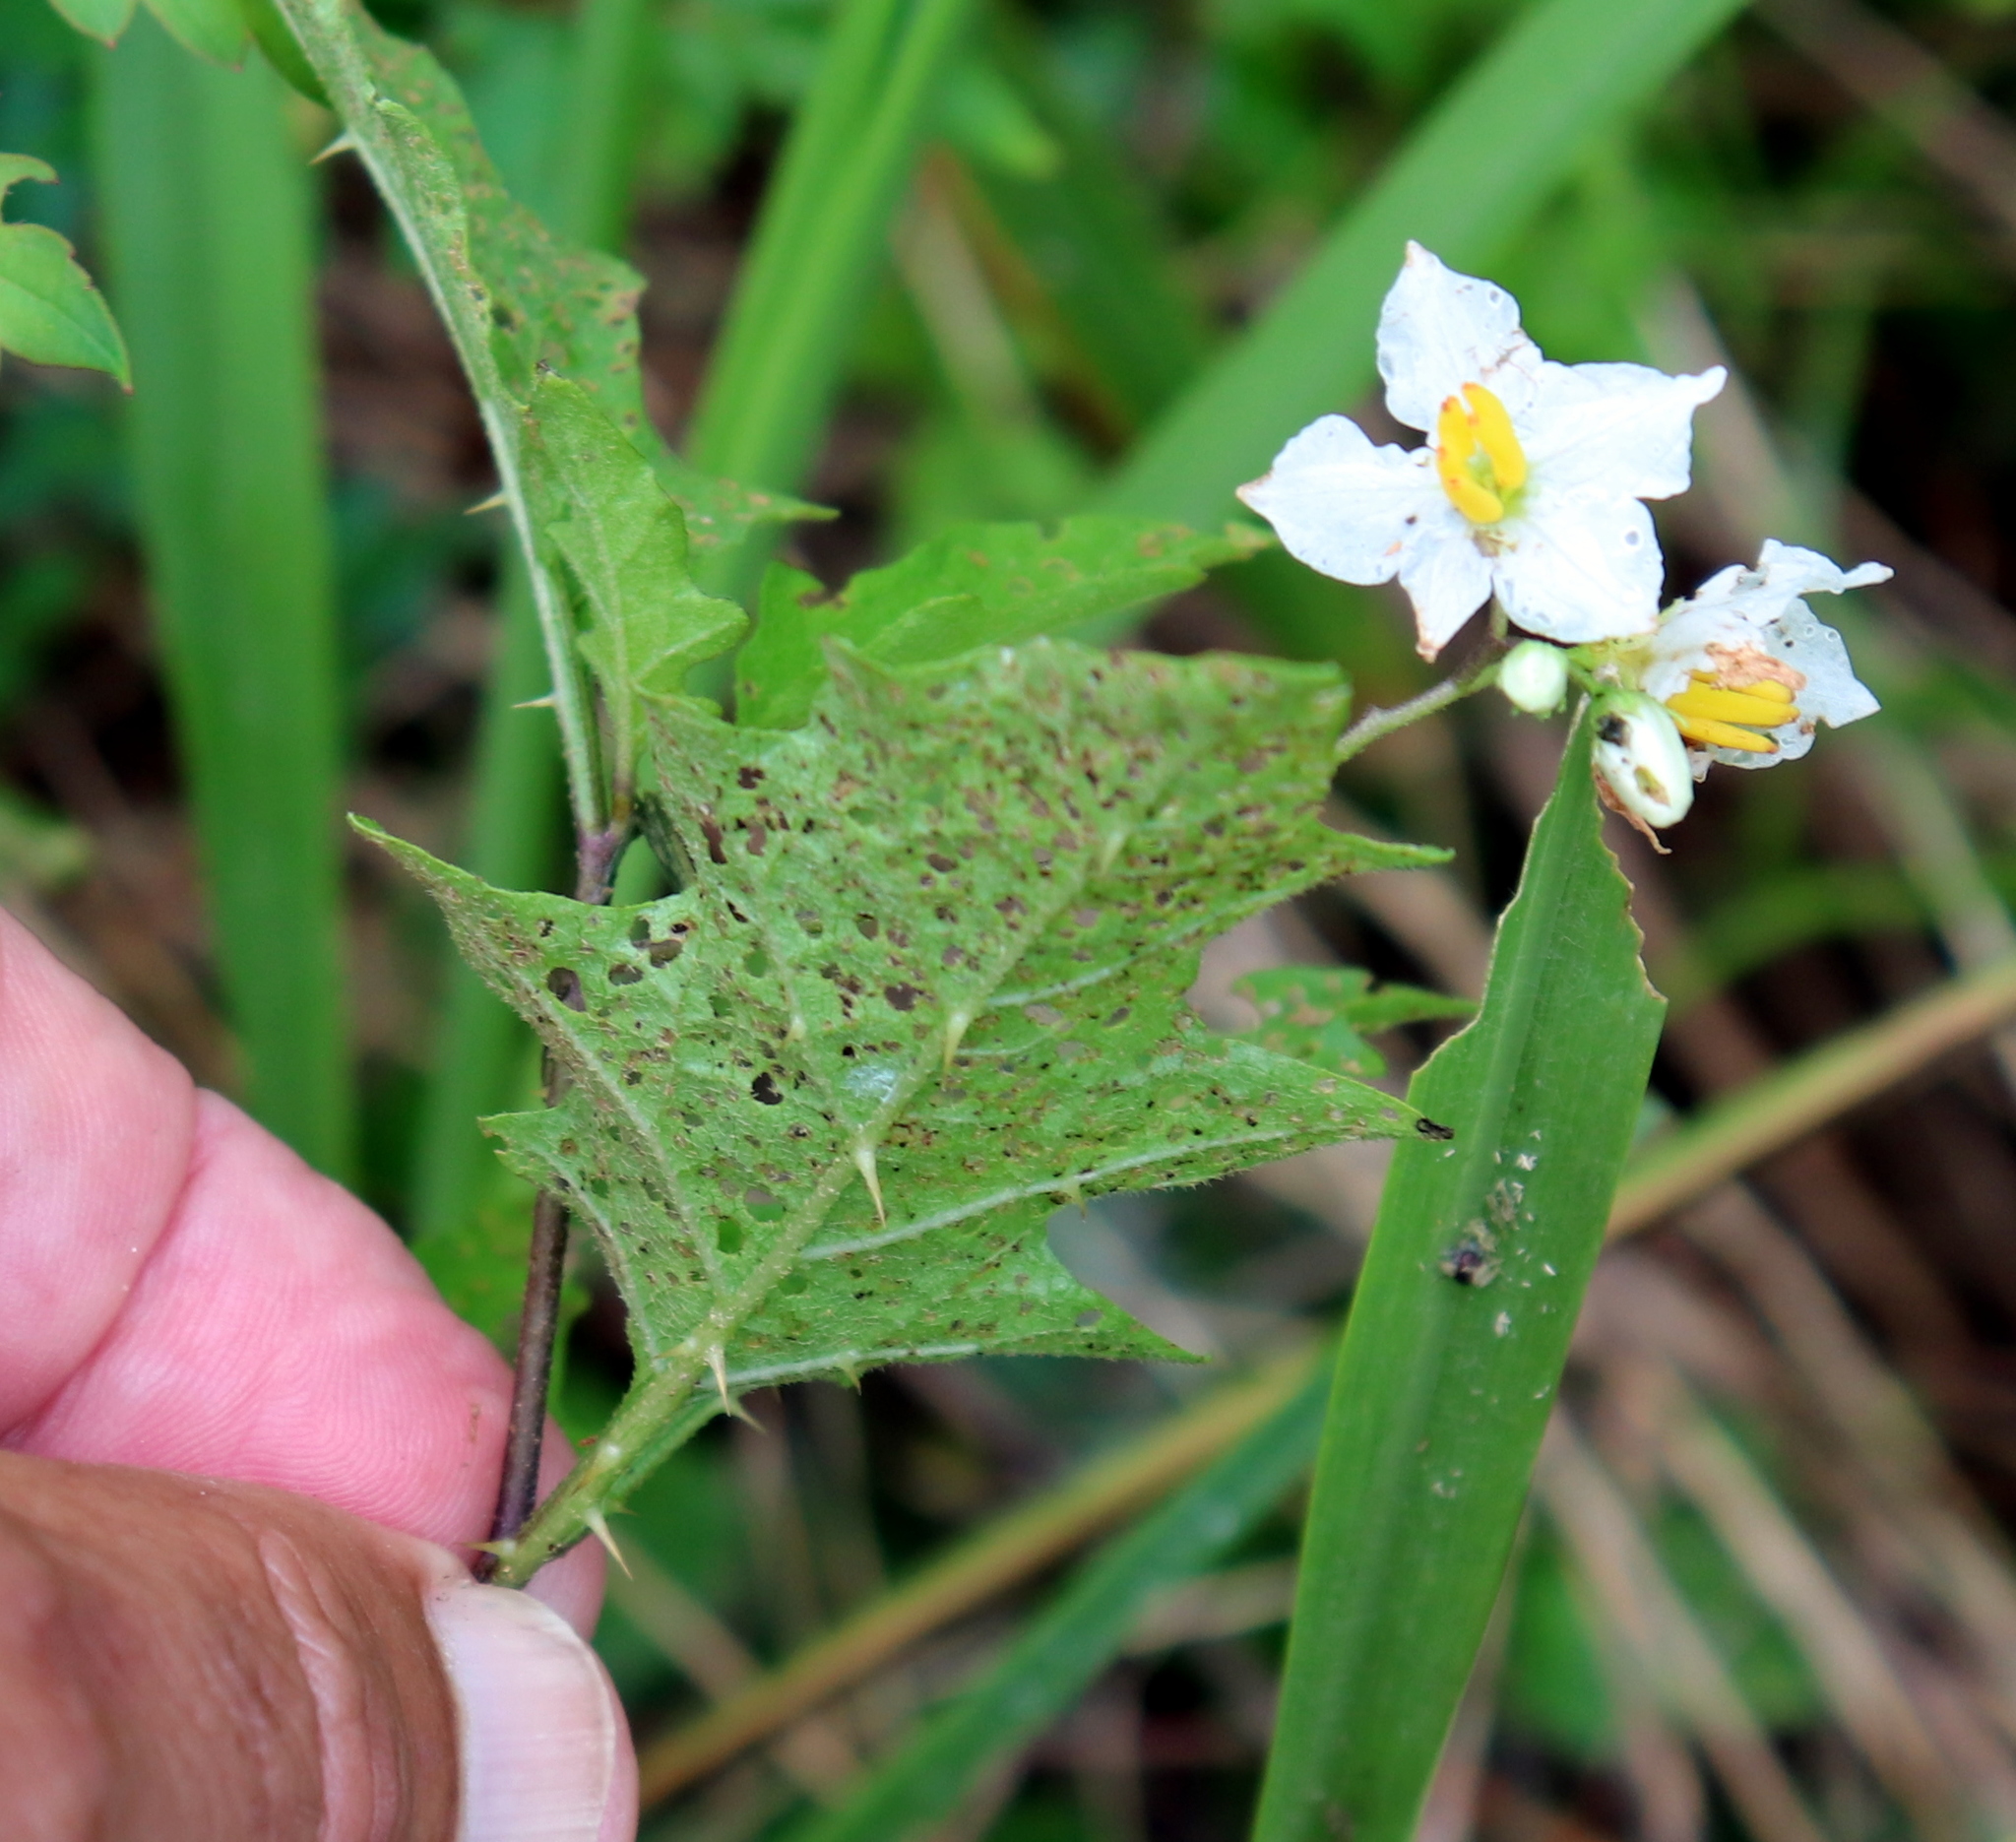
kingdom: Plantae
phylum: Tracheophyta
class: Magnoliopsida
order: Solanales
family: Solanaceae
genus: Solanum
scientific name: Solanum carolinense
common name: Horse-nettle
